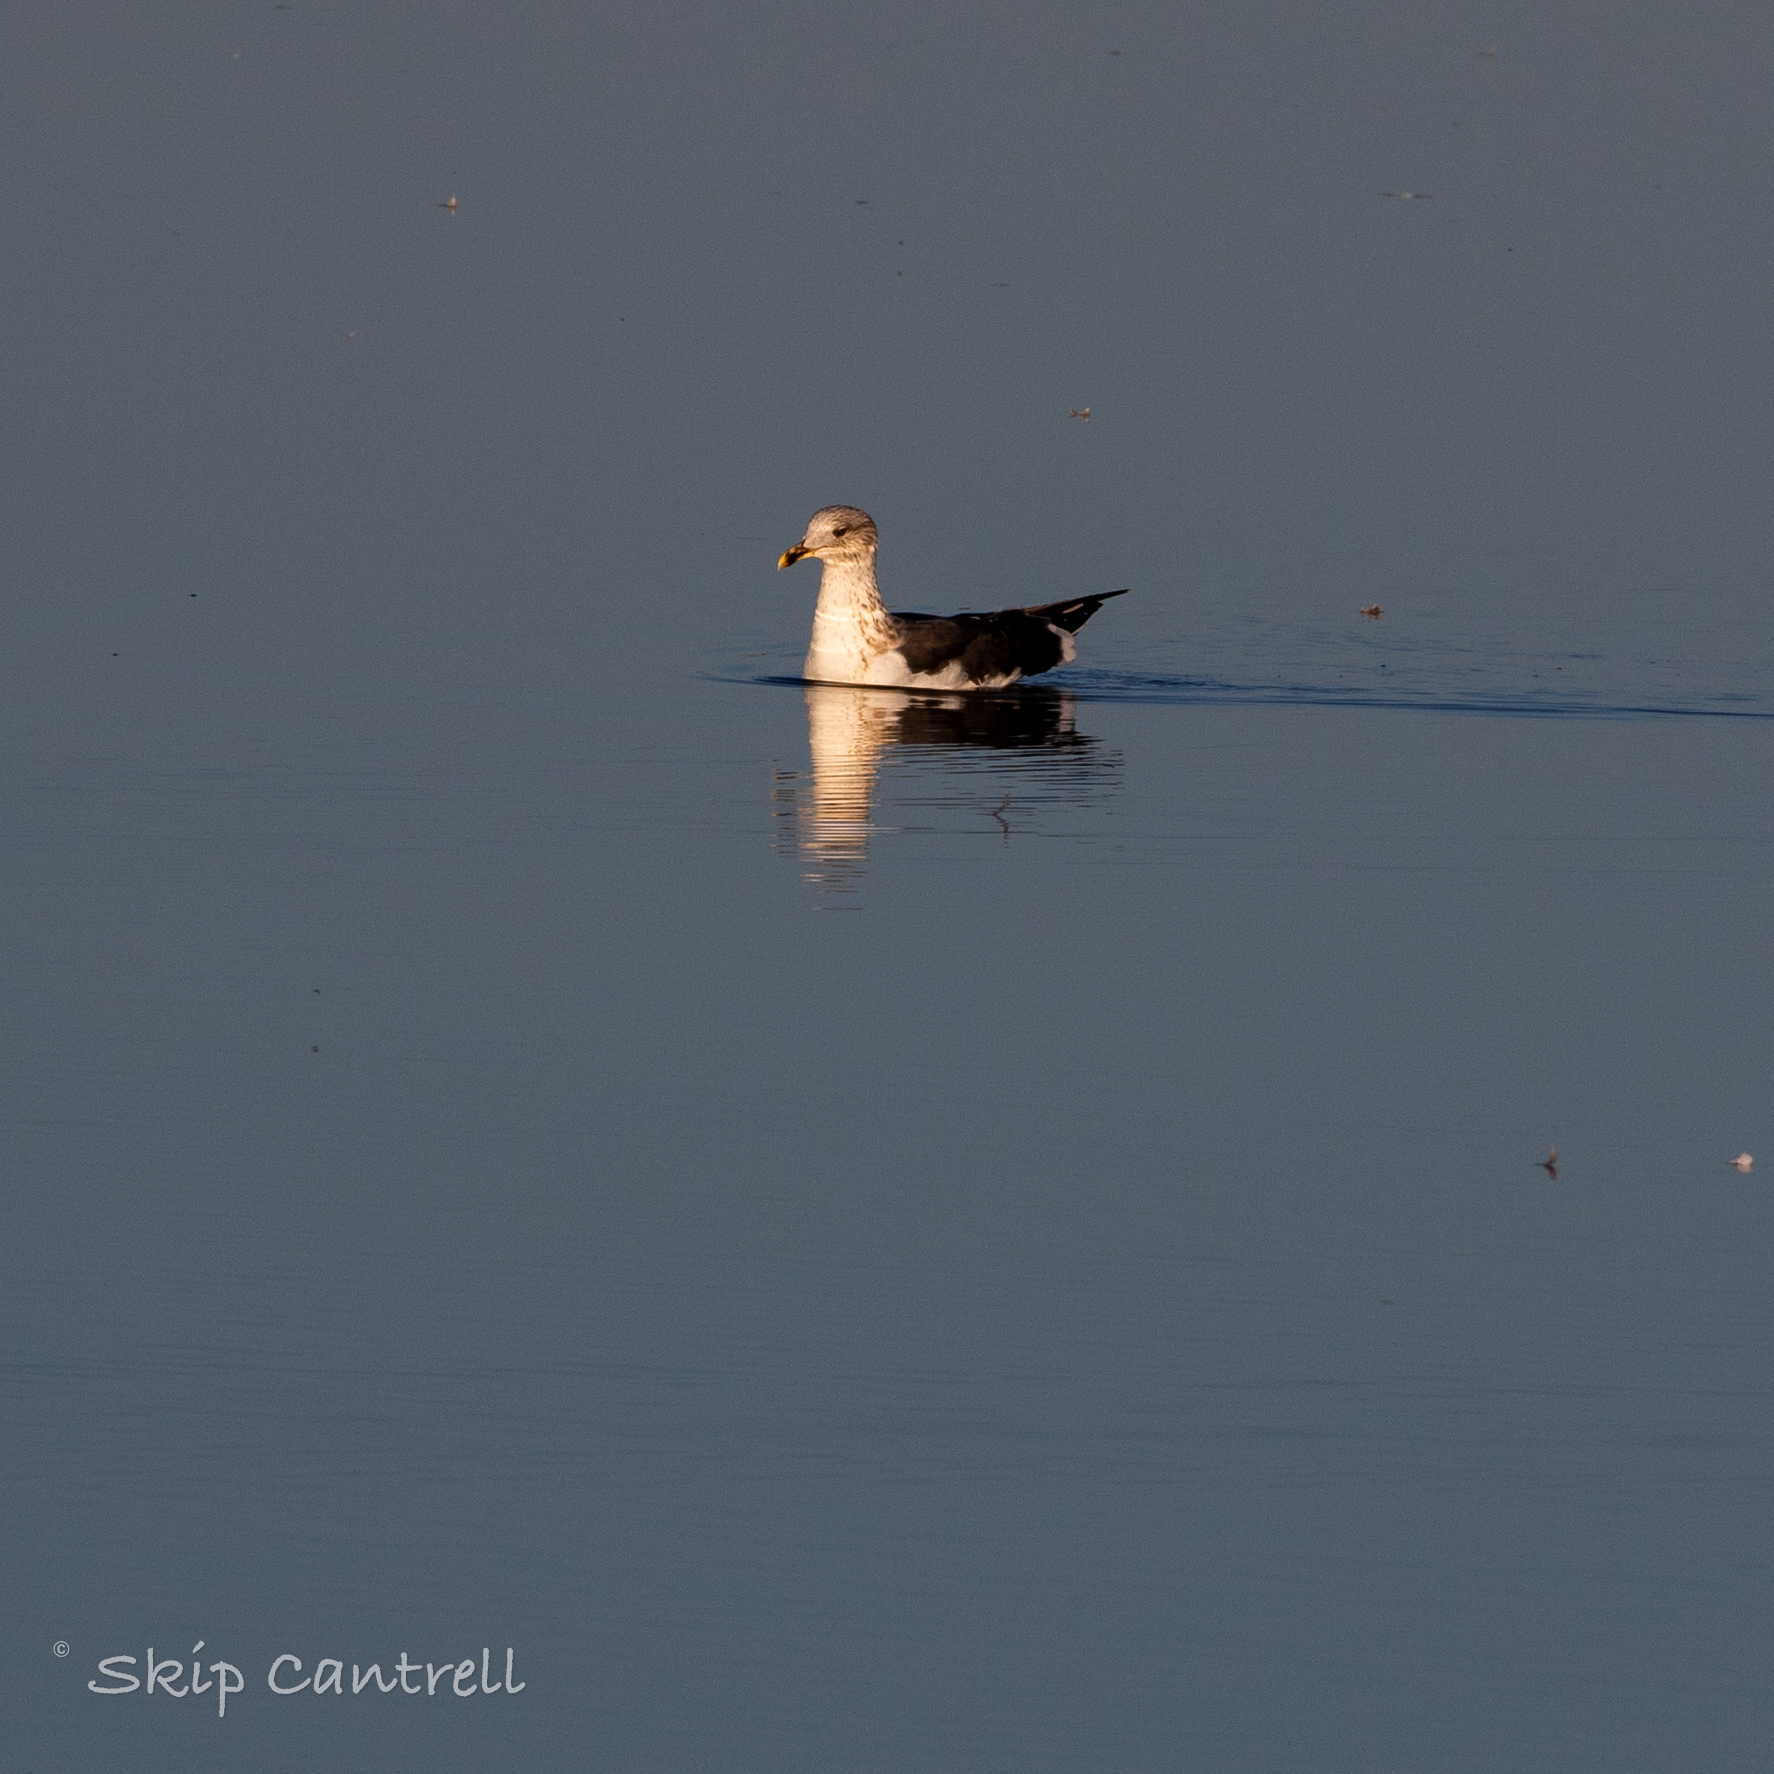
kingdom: Animalia
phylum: Chordata
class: Aves
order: Charadriiformes
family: Laridae
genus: Larus
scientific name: Larus fuscus
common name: Lesser black-backed gull
